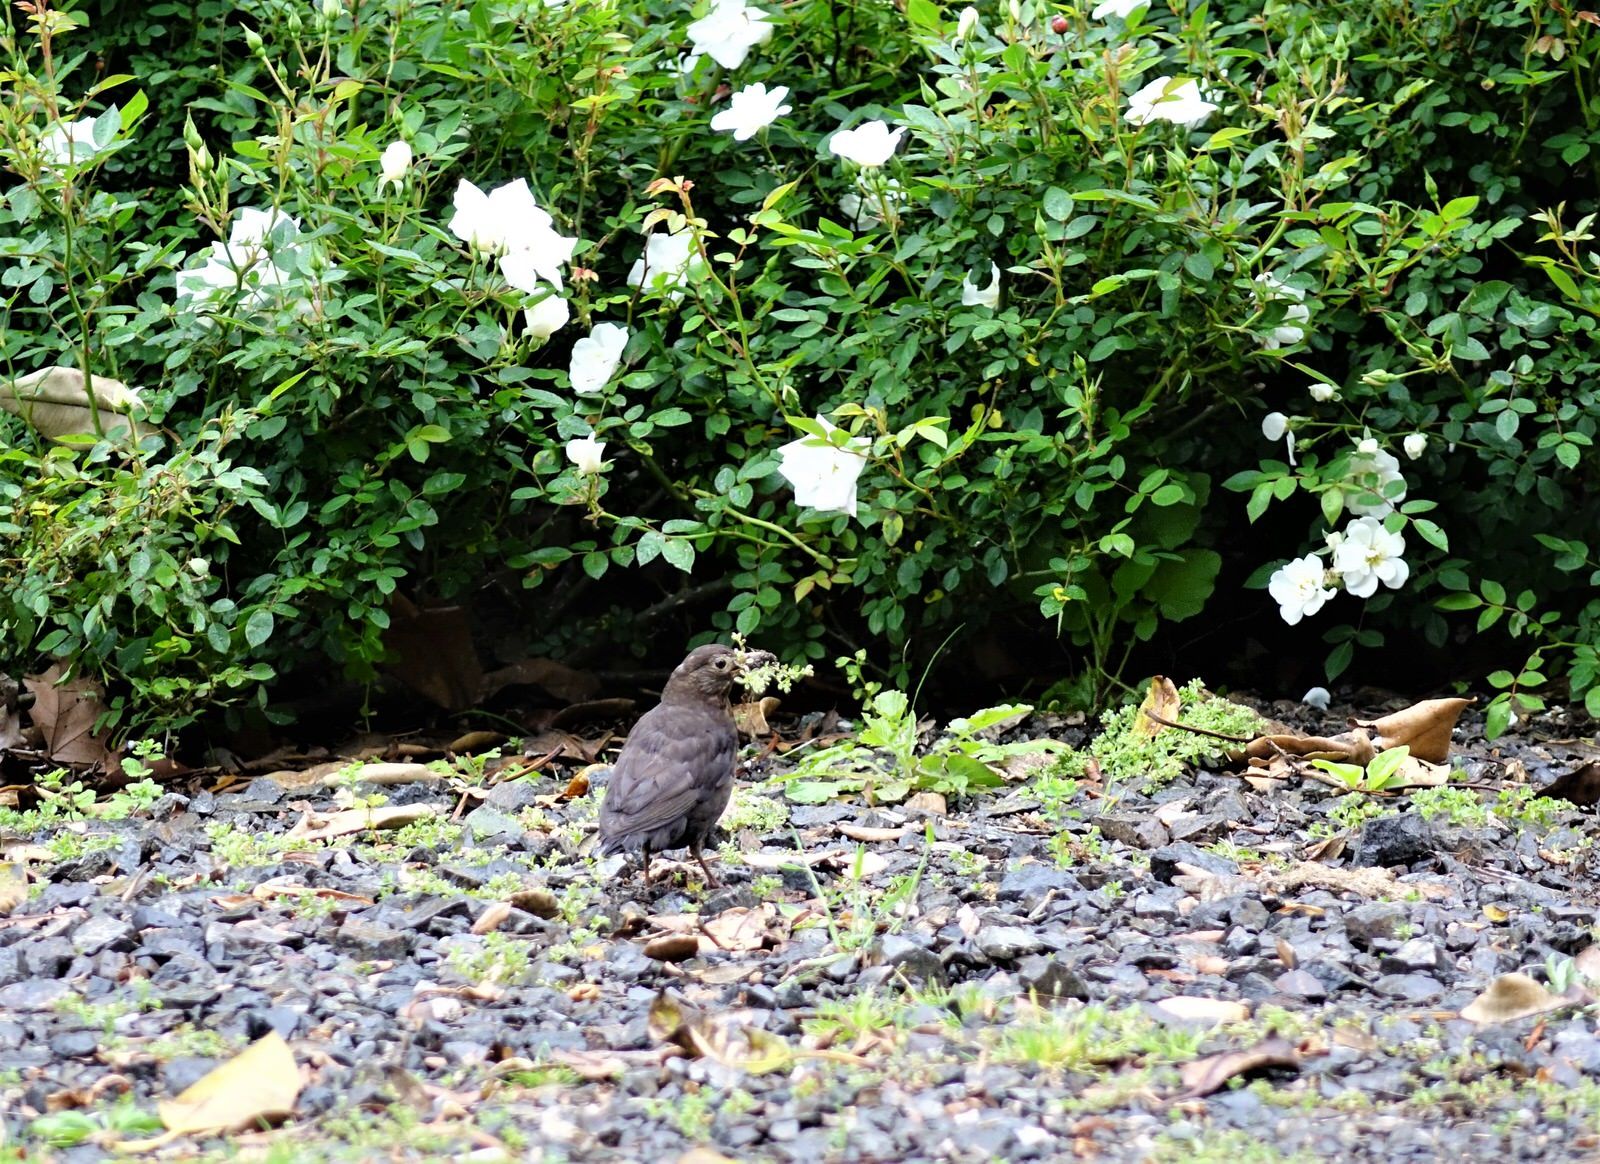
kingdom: Animalia
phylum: Chordata
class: Aves
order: Passeriformes
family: Turdidae
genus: Turdus
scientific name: Turdus merula
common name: Common blackbird
